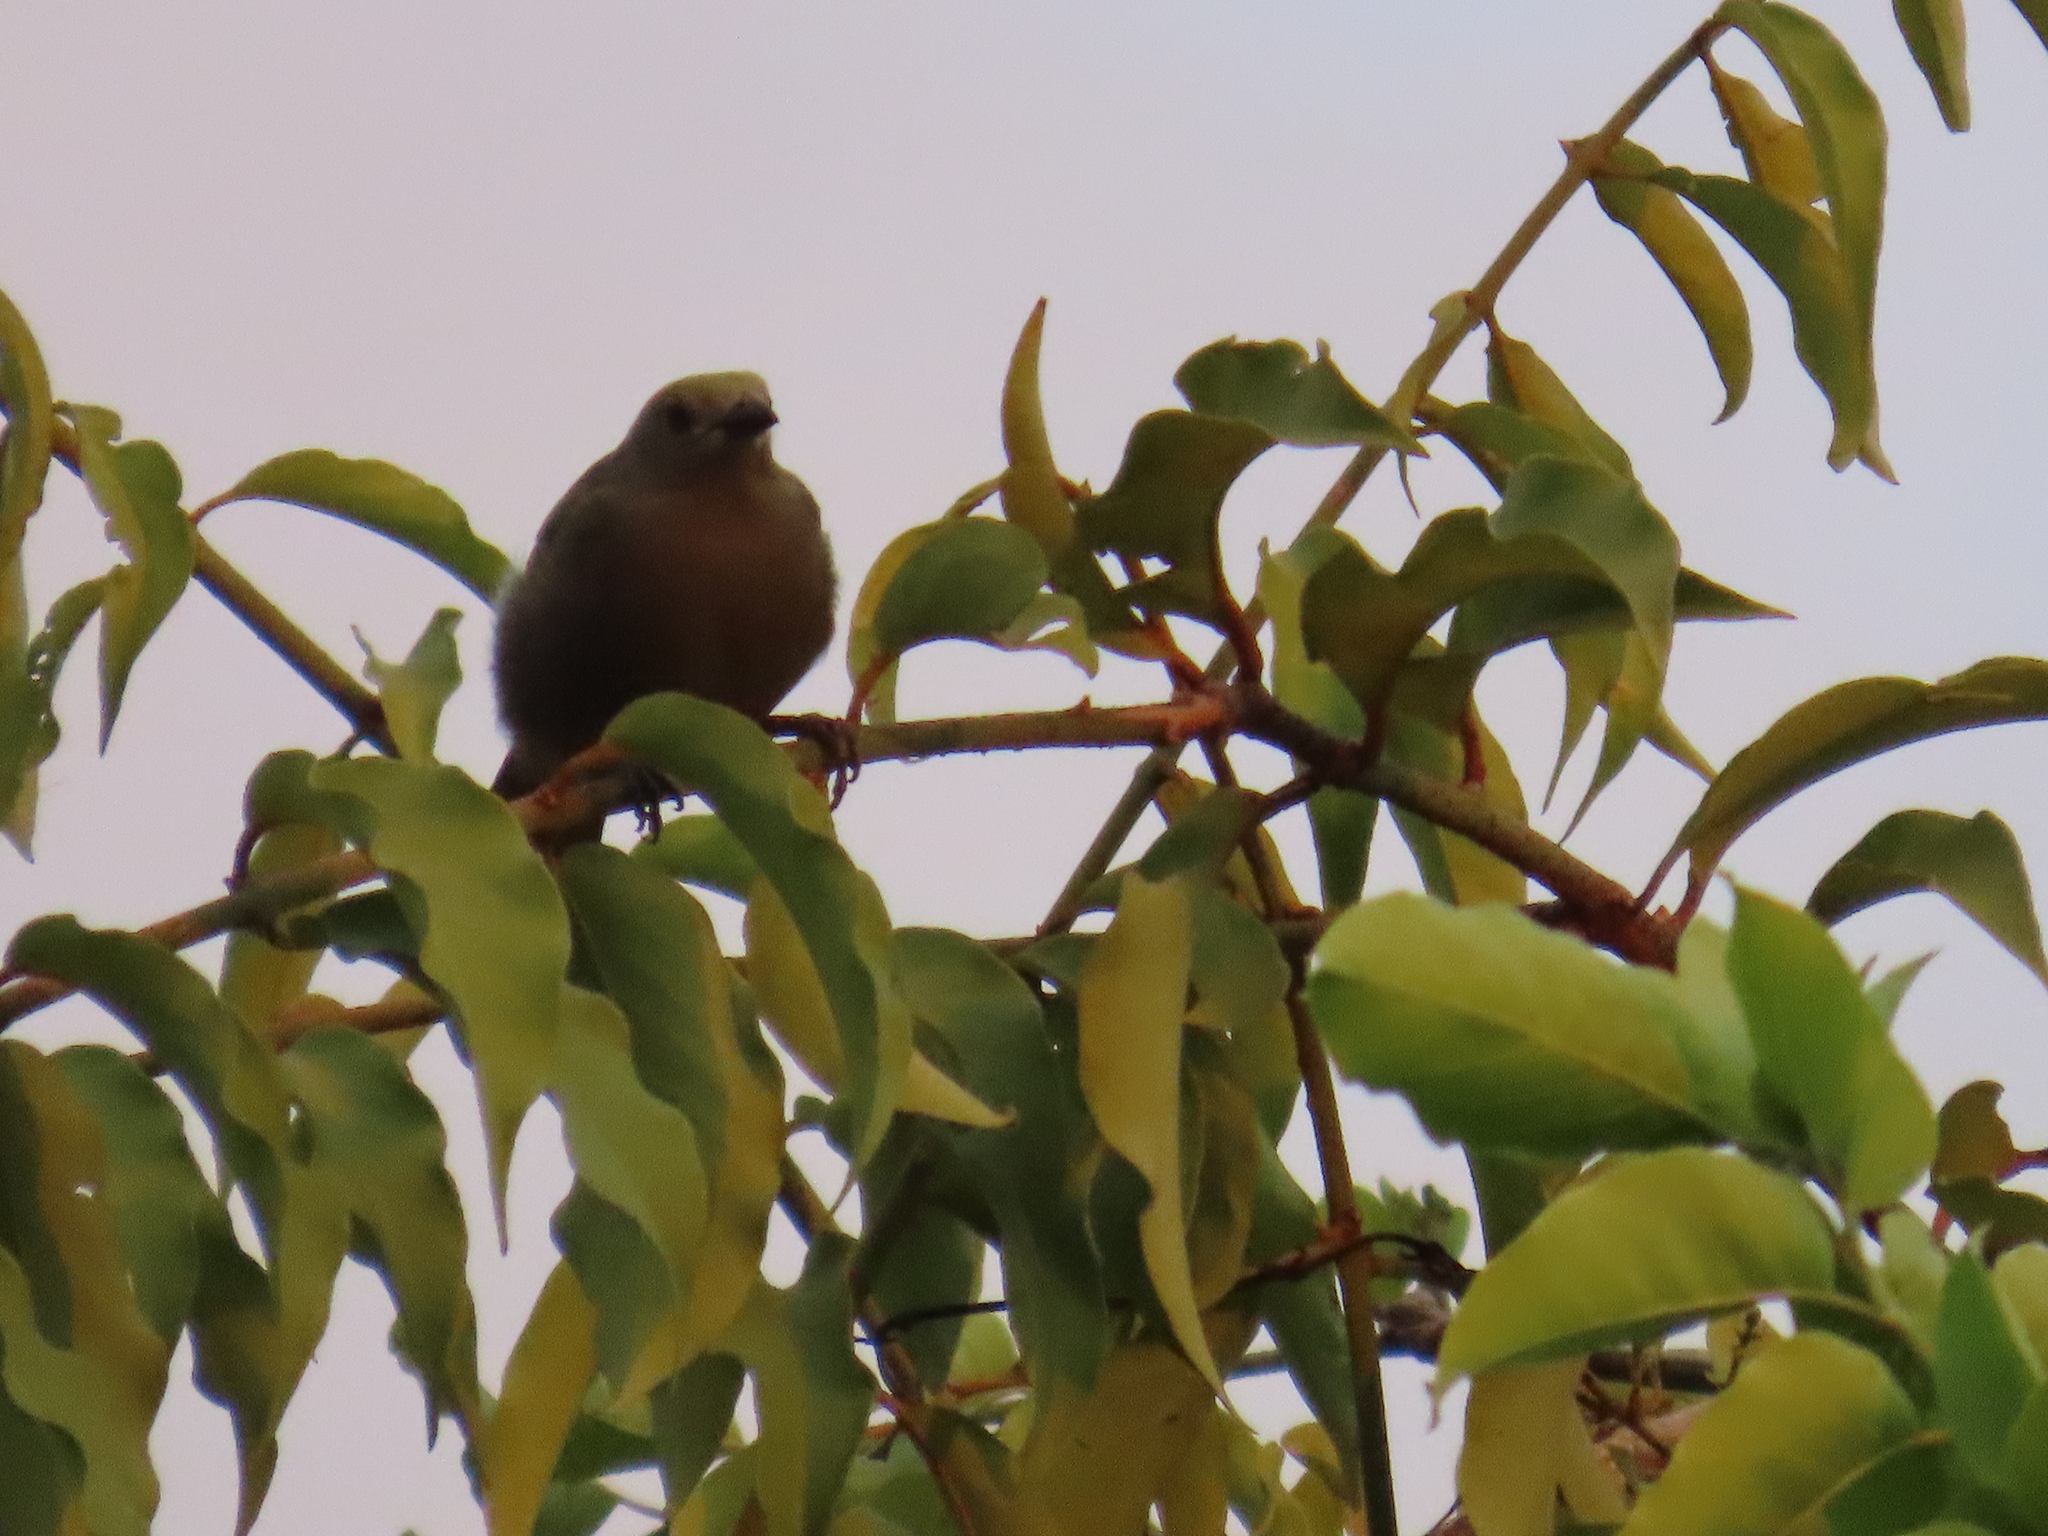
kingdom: Animalia
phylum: Chordata
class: Aves
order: Passeriformes
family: Thraupidae
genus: Thraupis
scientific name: Thraupis palmarum
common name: Palm tanager
